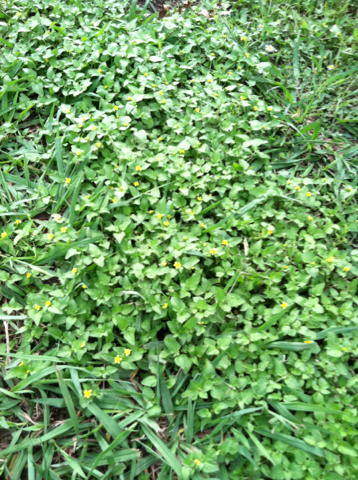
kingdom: Plantae
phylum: Tracheophyta
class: Magnoliopsida
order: Asterales
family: Asteraceae
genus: Calyptocarpus
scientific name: Calyptocarpus vialis
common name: Straggler daisy
